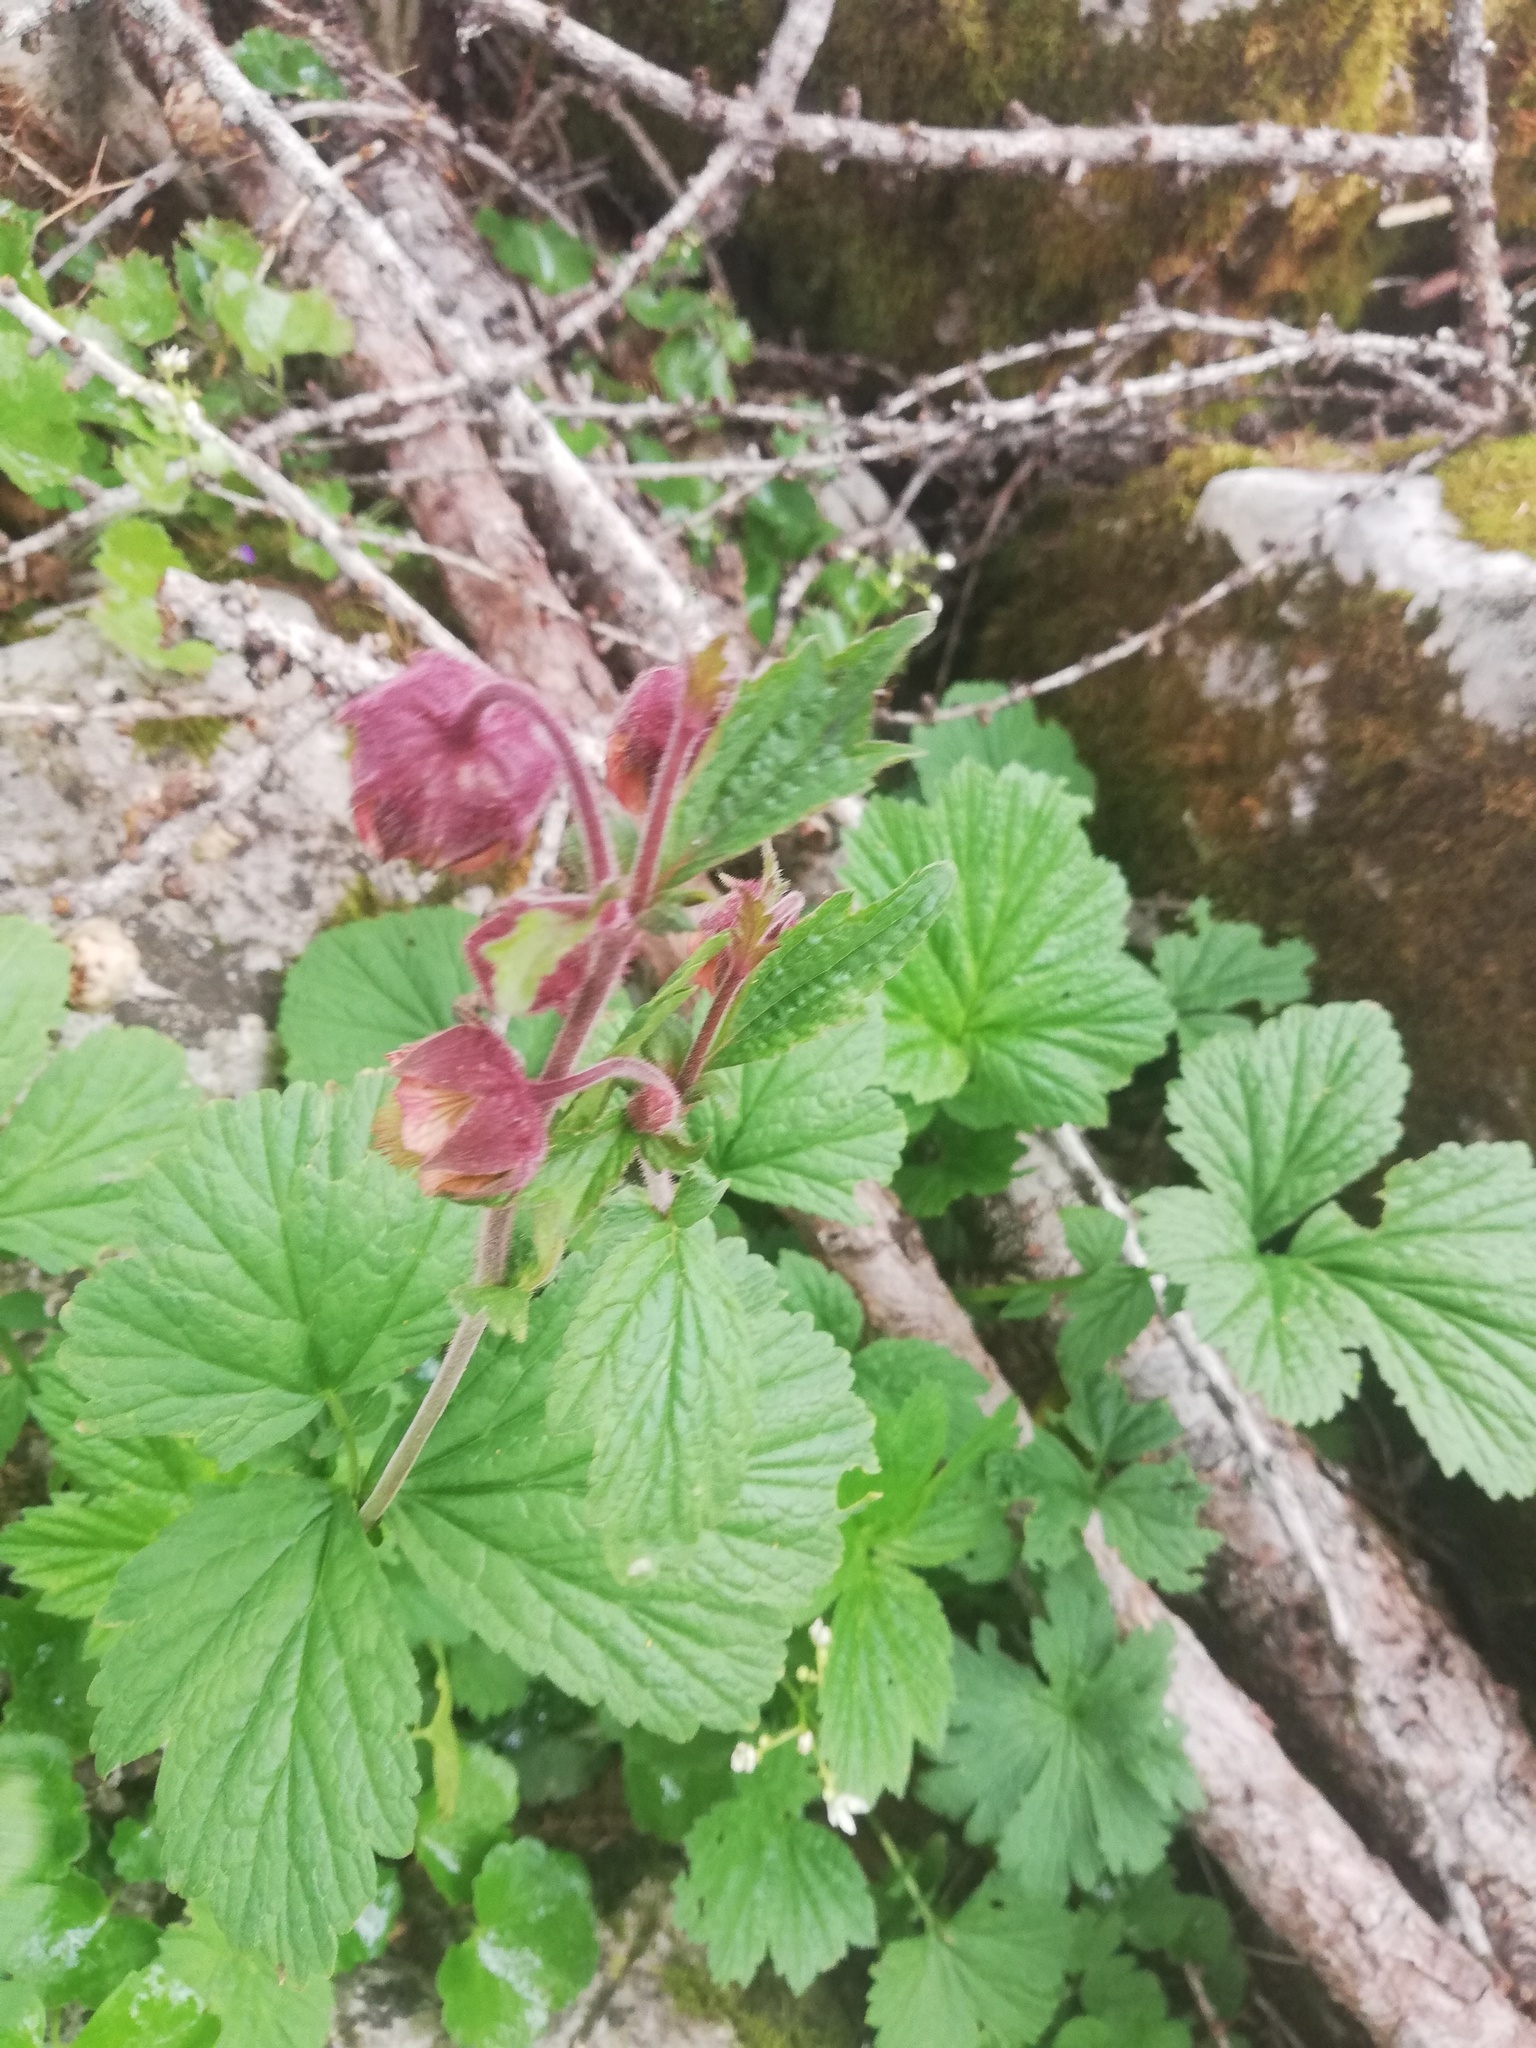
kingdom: Plantae
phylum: Tracheophyta
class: Magnoliopsida
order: Rosales
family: Rosaceae
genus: Geum
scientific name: Geum rivale
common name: Water avens
